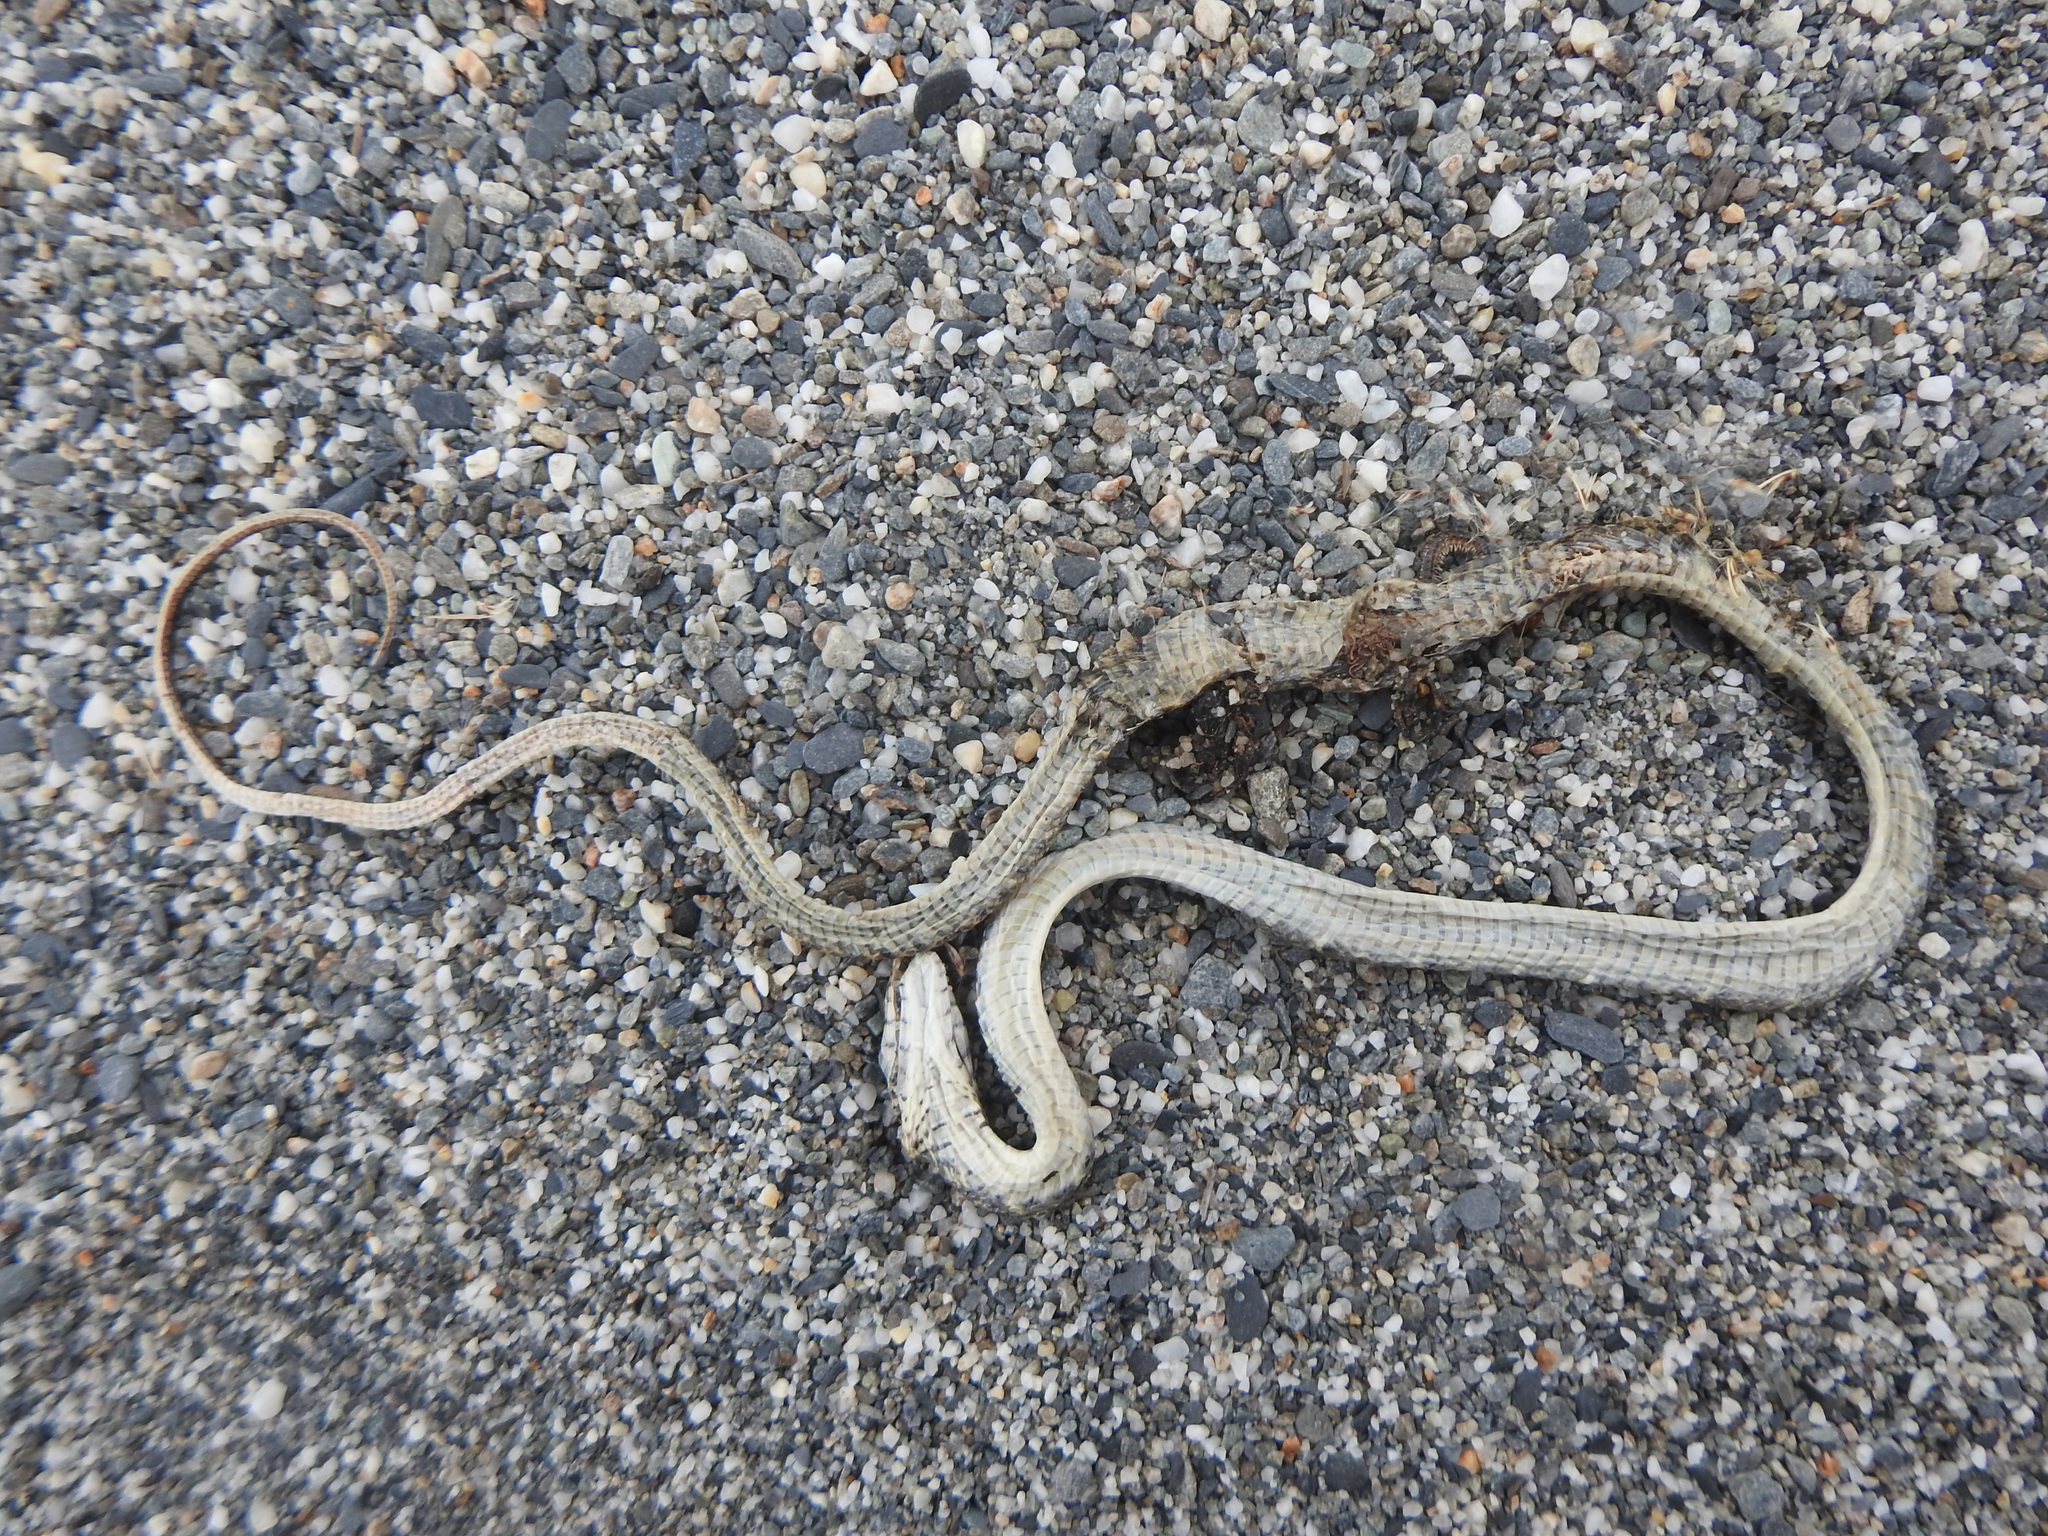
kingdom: Animalia
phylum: Chordata
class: Squamata
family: Colubridae
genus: Ptyas
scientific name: Ptyas mucosa
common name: Oriental ratsnake
